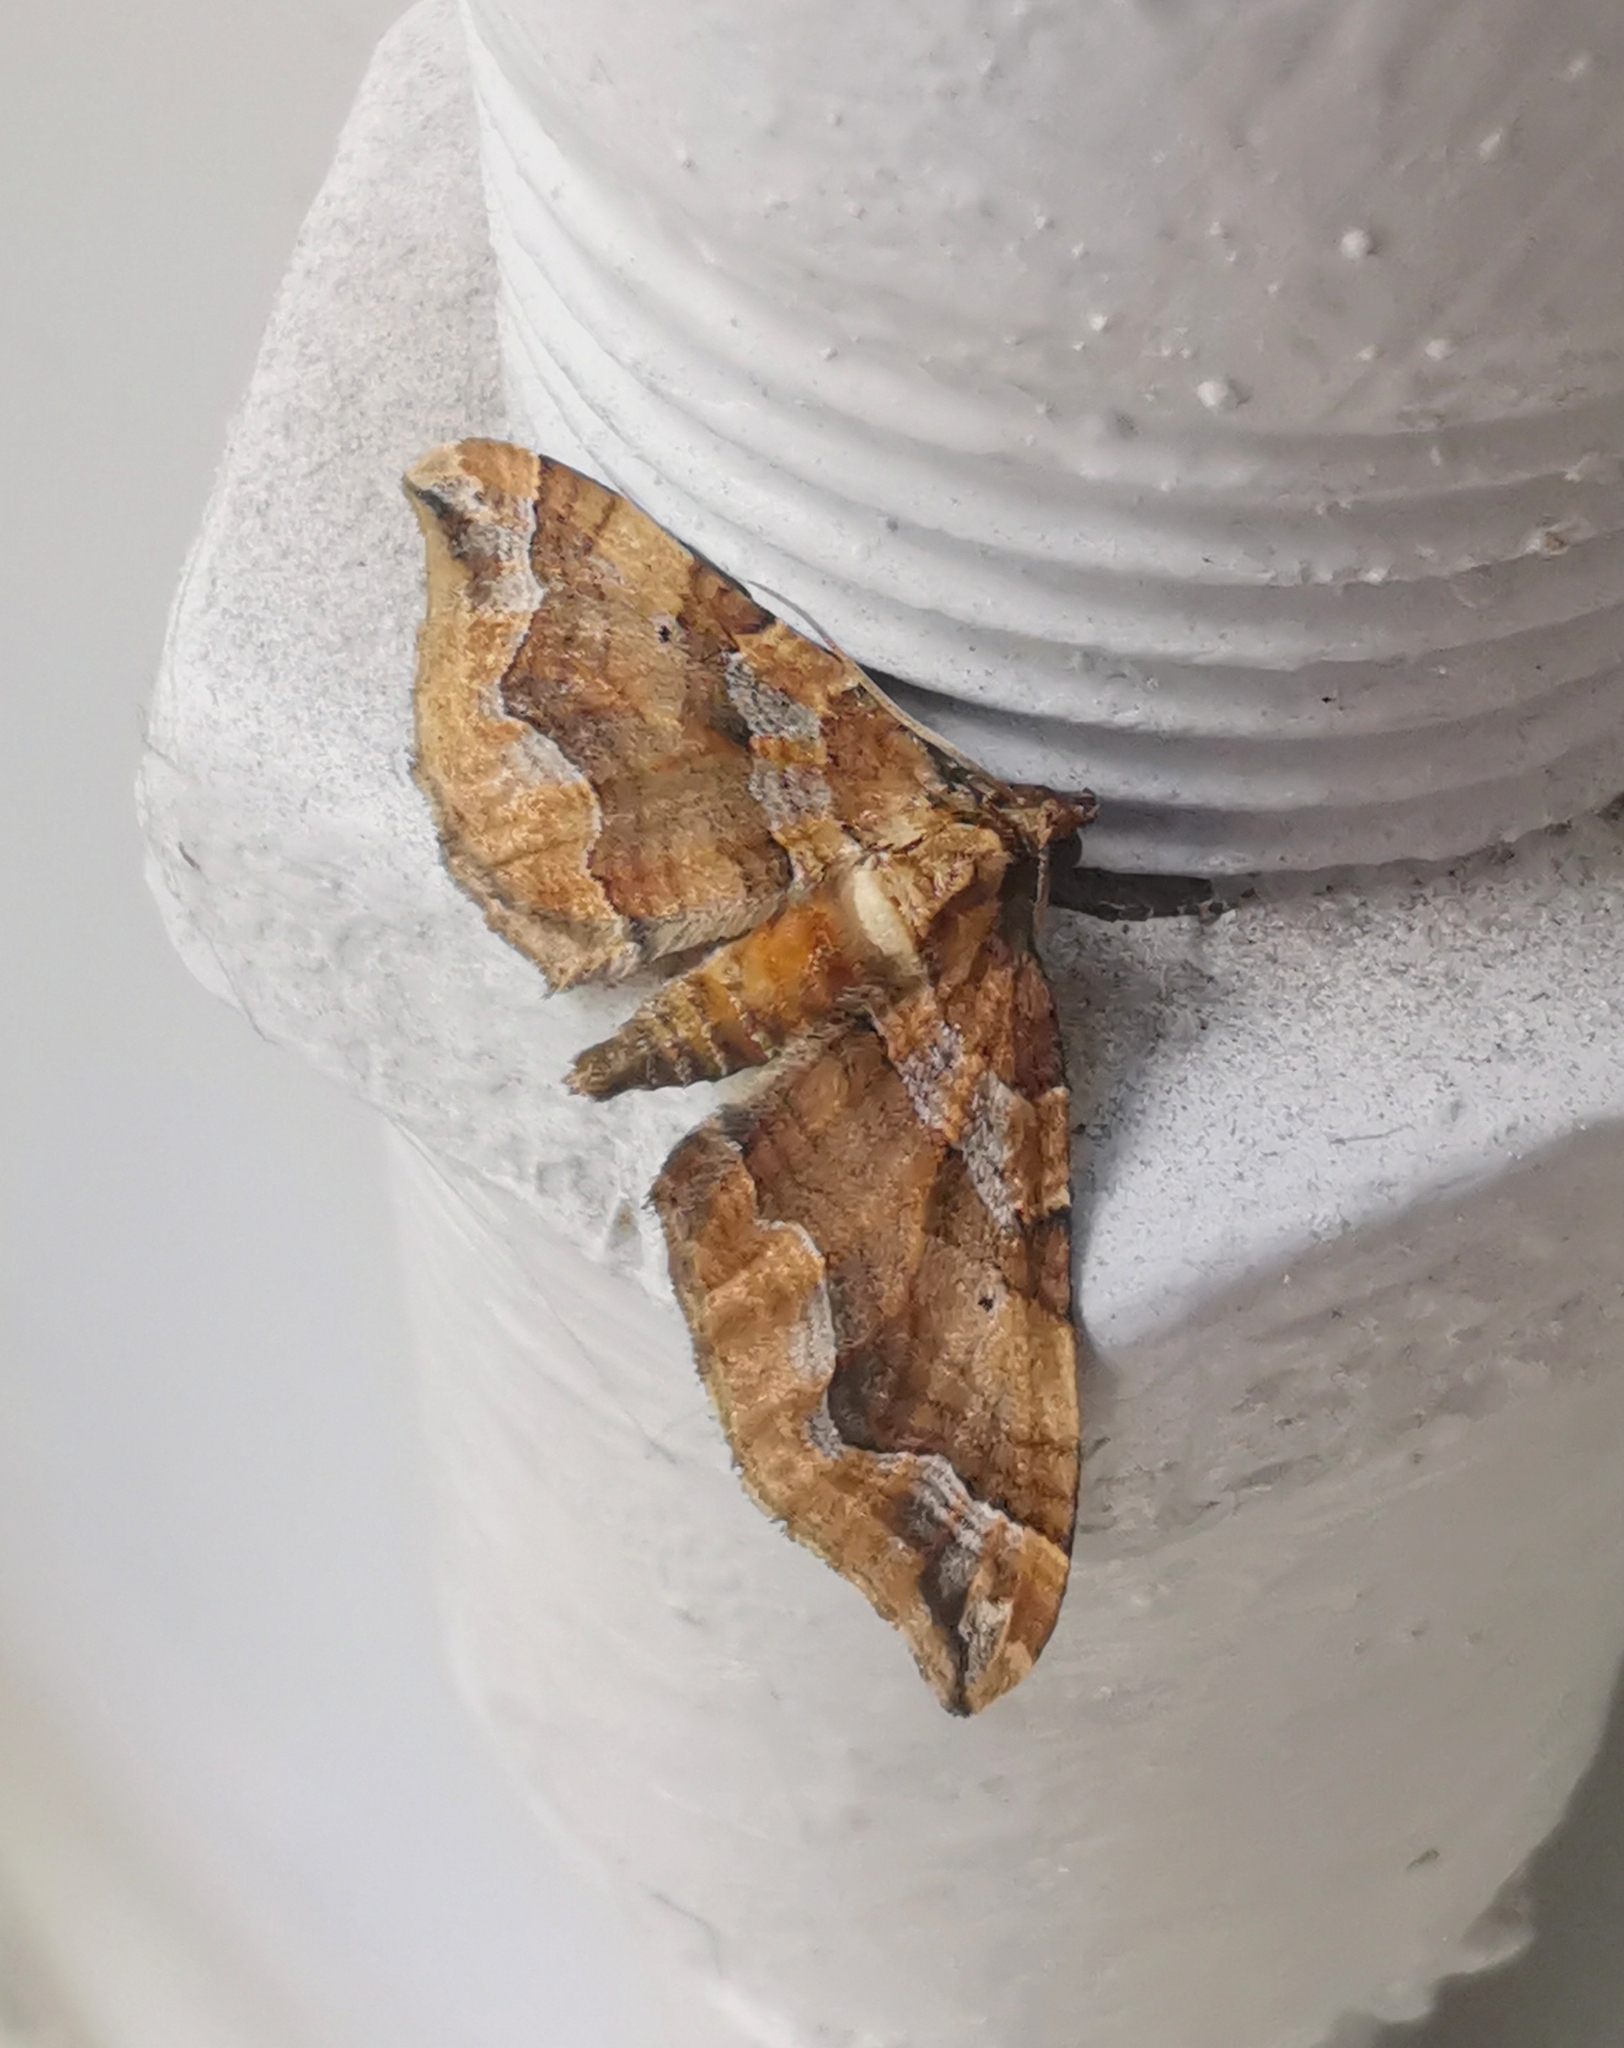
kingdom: Animalia
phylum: Arthropoda
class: Insecta
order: Lepidoptera
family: Geometridae
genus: Pelurga
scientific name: Pelurga comitata
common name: Dark spinach
